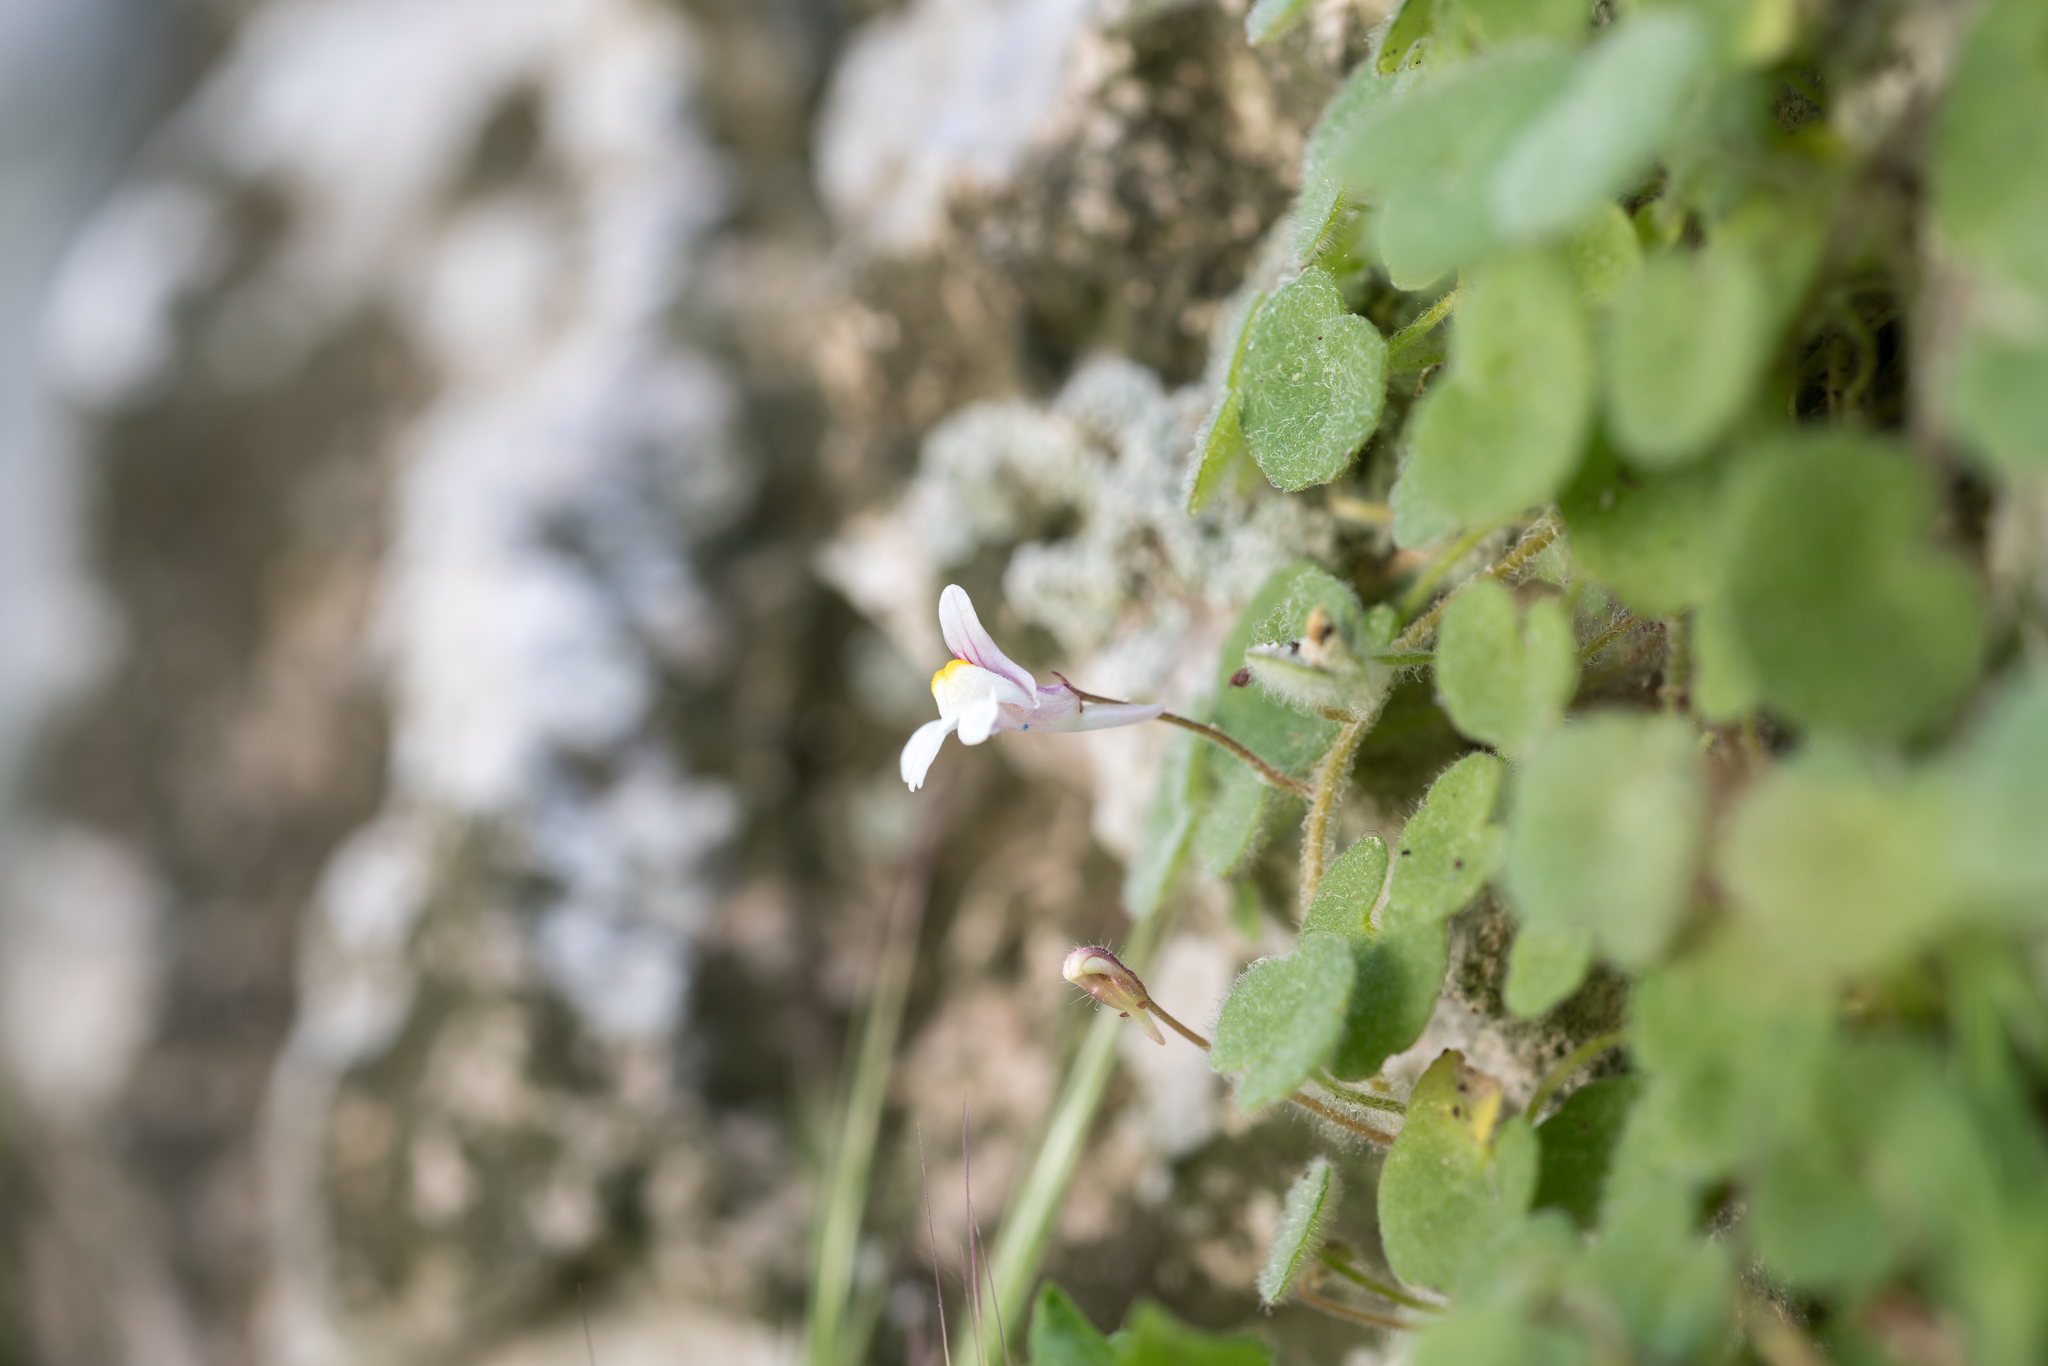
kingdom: Plantae
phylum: Tracheophyta
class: Magnoliopsida
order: Lamiales
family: Plantaginaceae
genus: Cymbalaria
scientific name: Cymbalaria acutiloba
